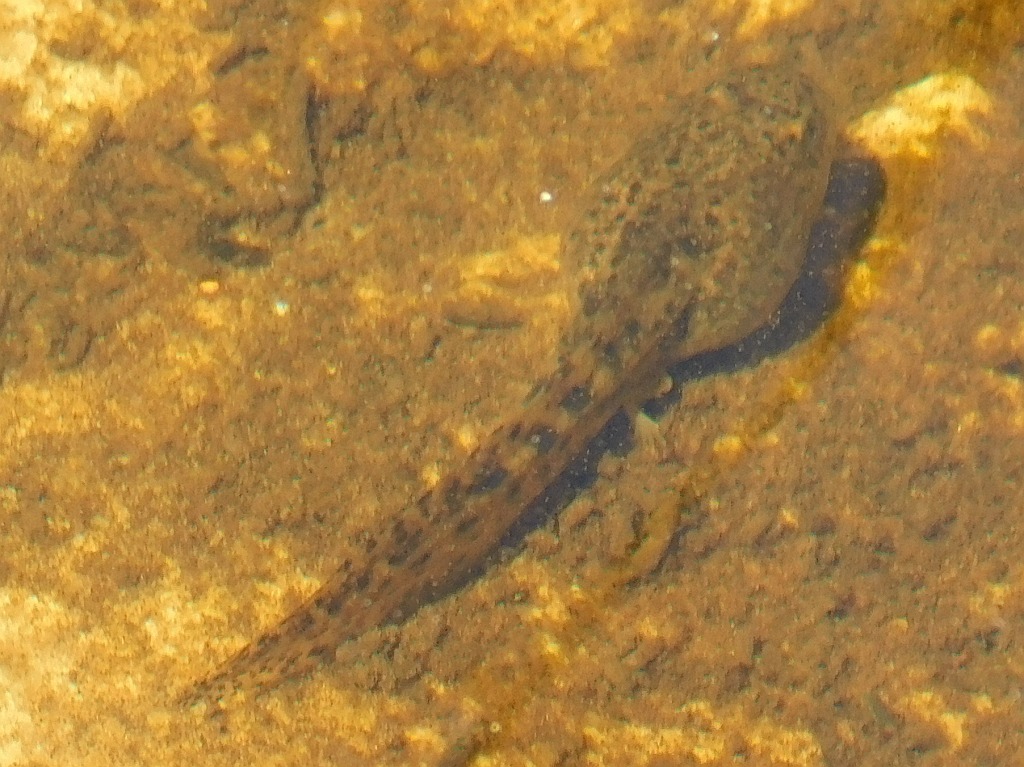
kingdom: Animalia
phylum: Chordata
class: Amphibia
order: Anura
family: Pyxicephalidae
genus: Amietia
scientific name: Amietia fuscigula
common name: Cape rana
